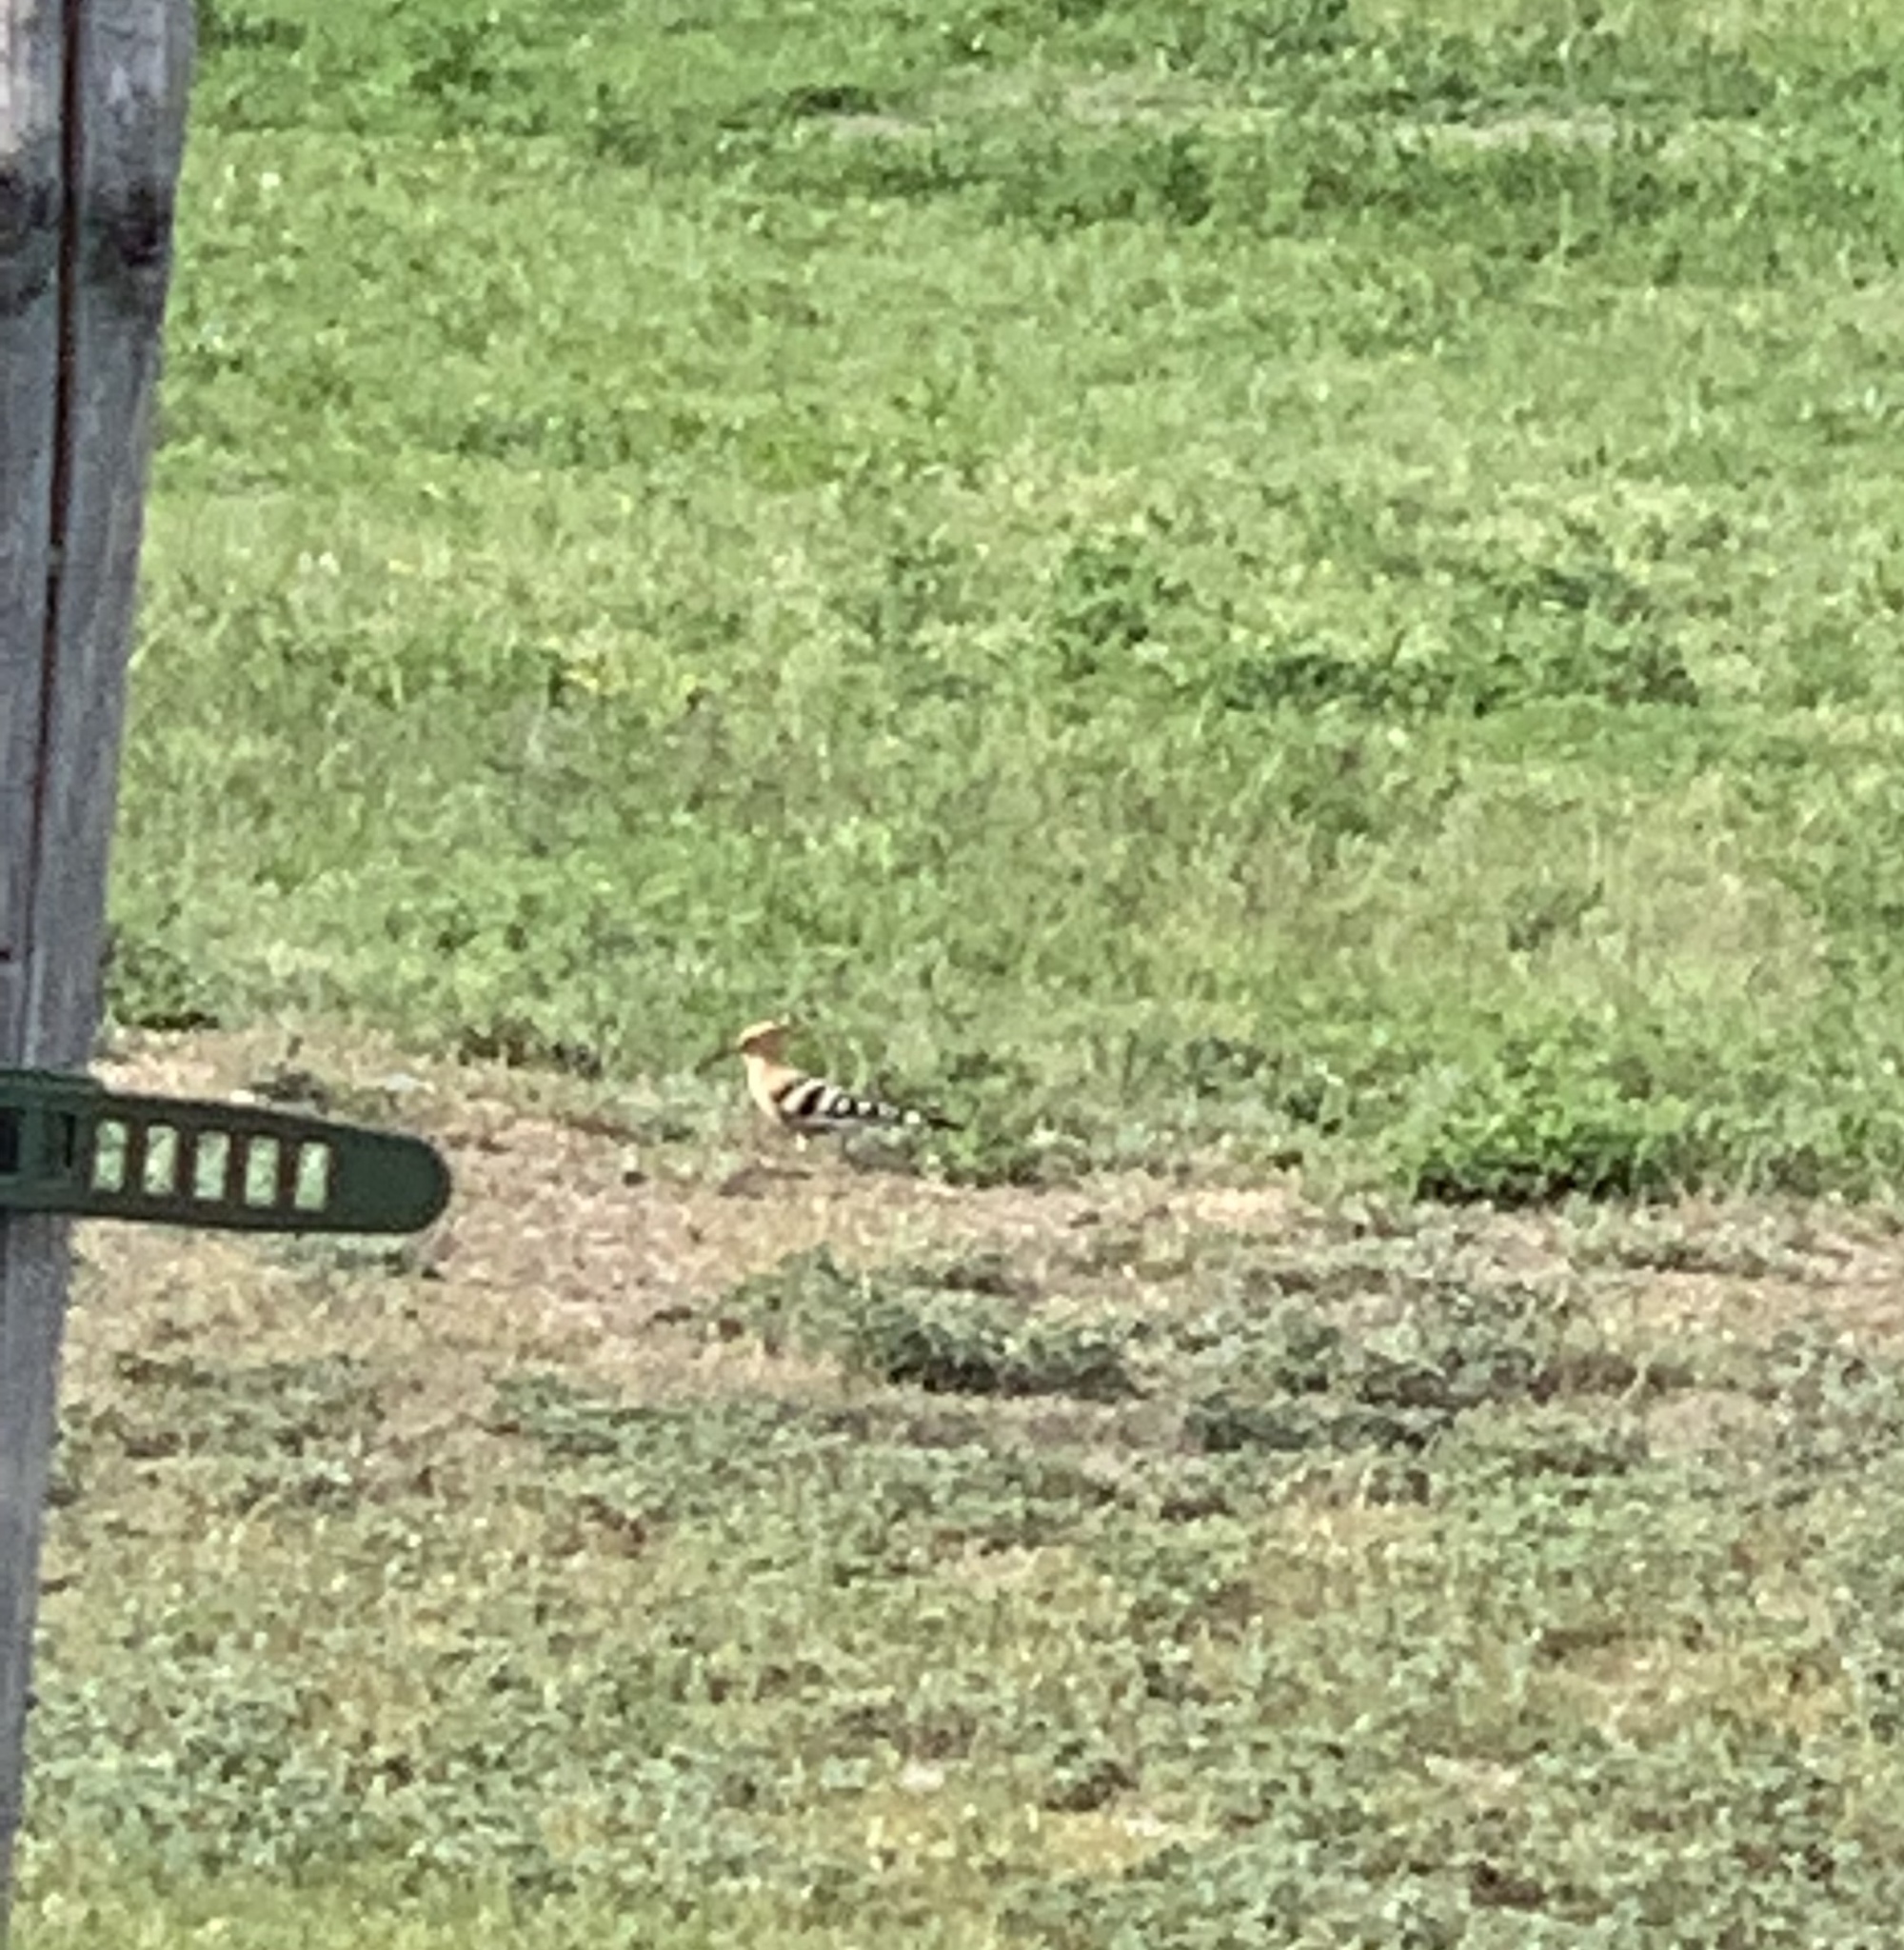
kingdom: Animalia
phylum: Chordata
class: Aves
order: Bucerotiformes
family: Upupidae
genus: Upupa
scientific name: Upupa epops
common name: Eurasian hoopoe
